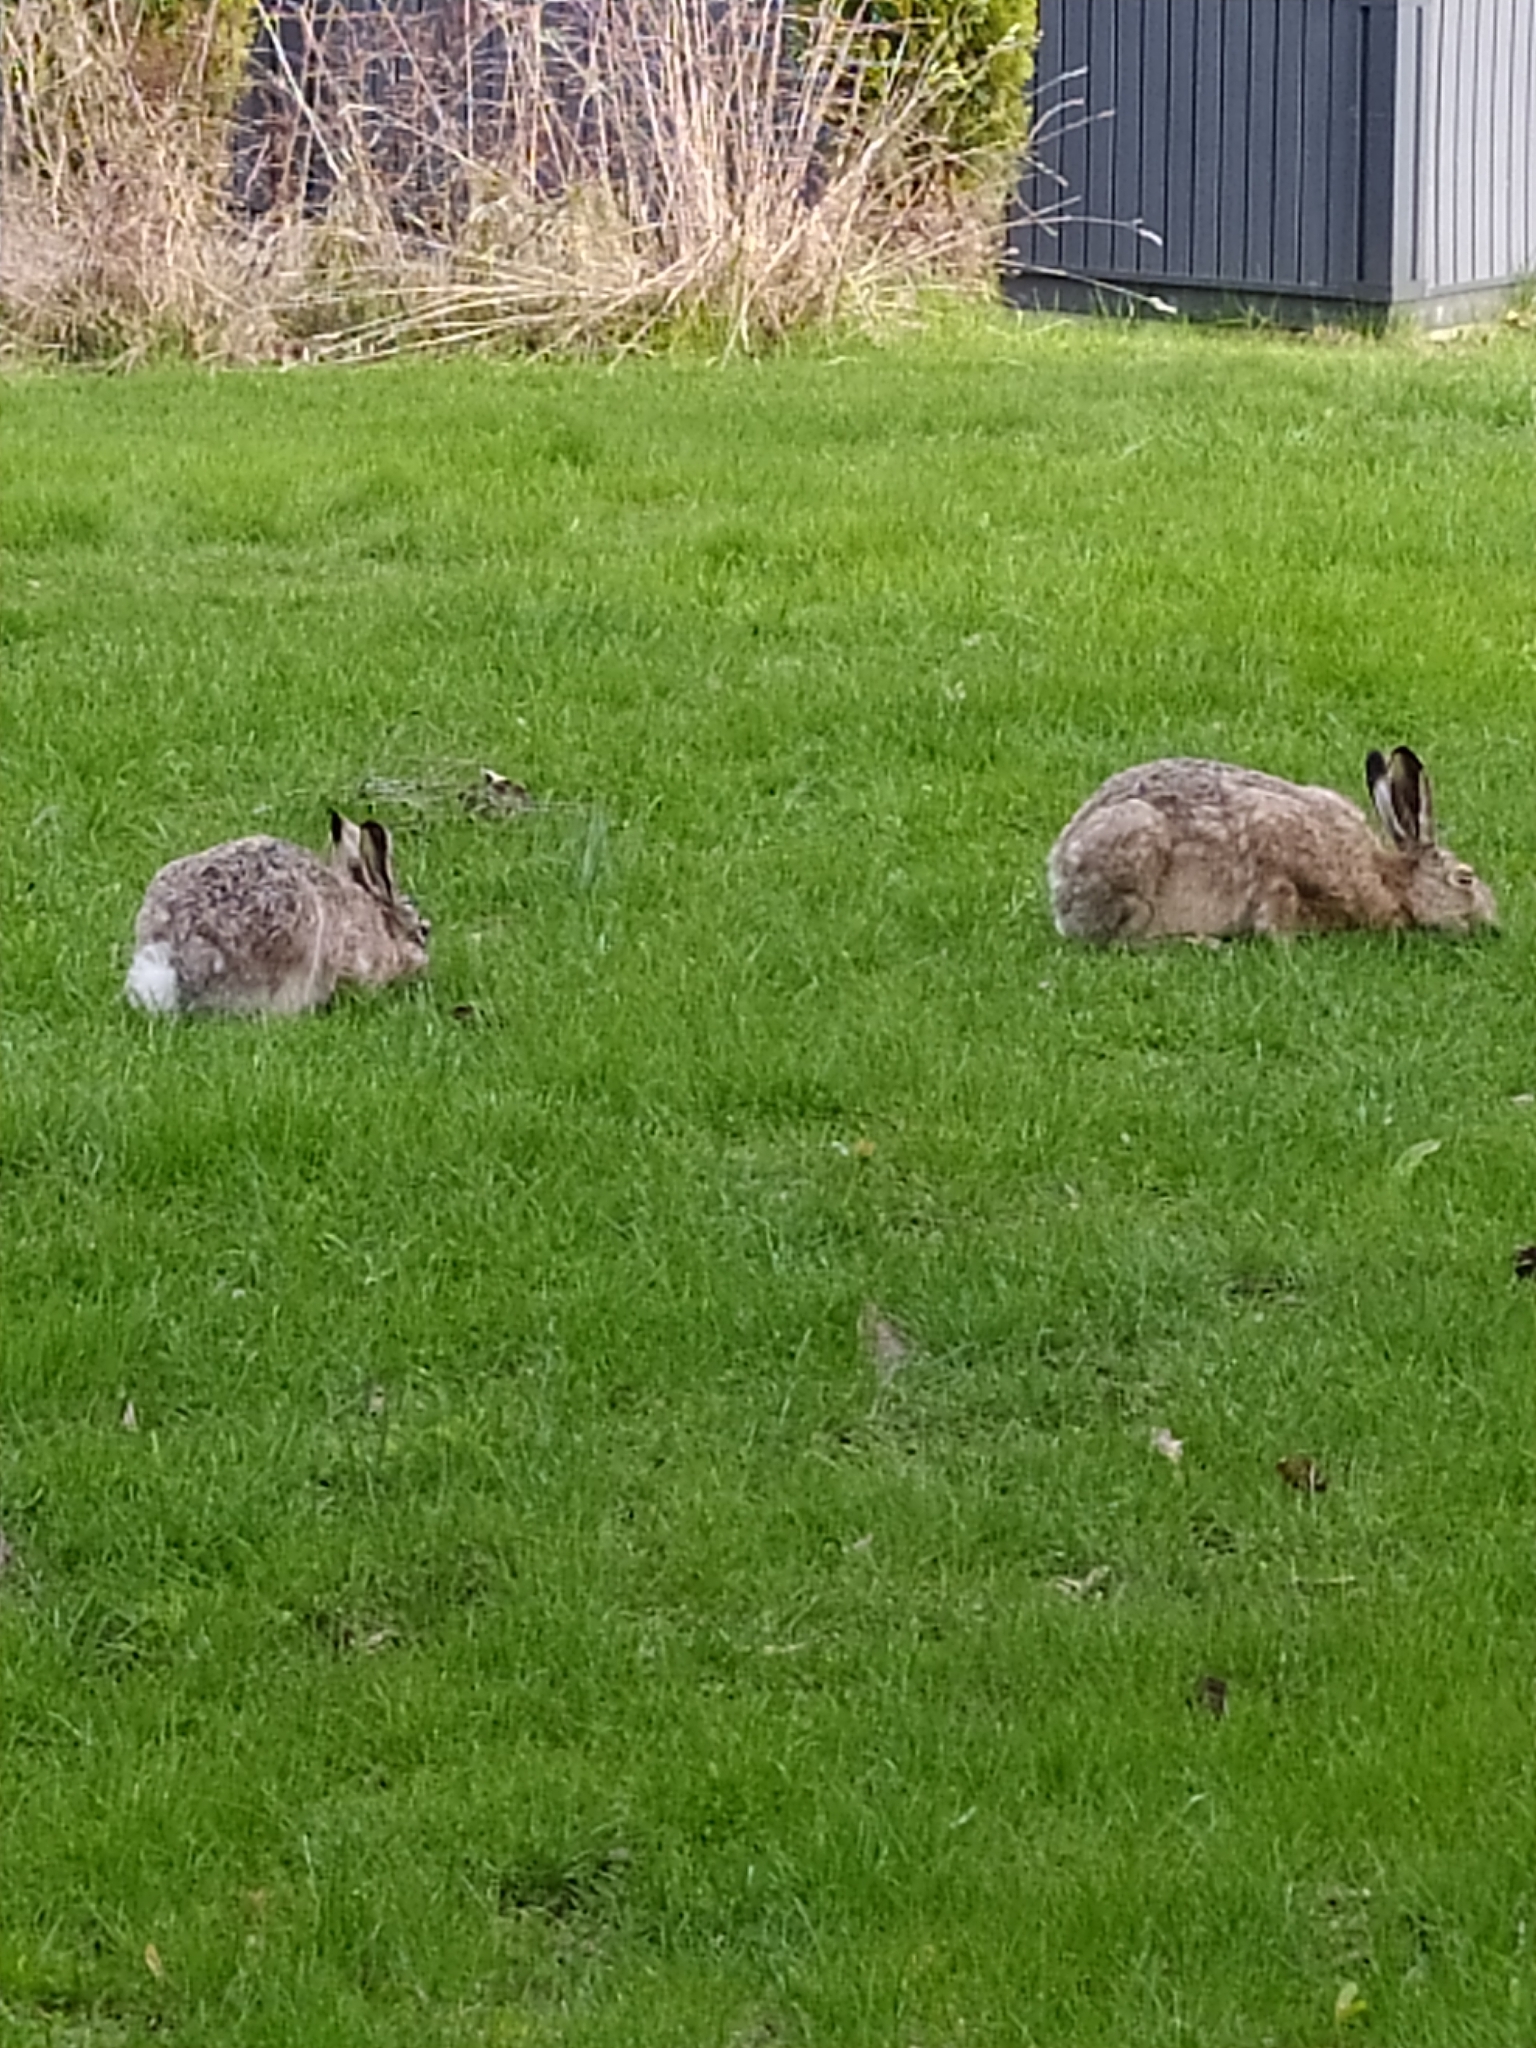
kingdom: Animalia
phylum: Chordata
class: Mammalia
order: Lagomorpha
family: Leporidae
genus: Lepus
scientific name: Lepus europaeus
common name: European hare
